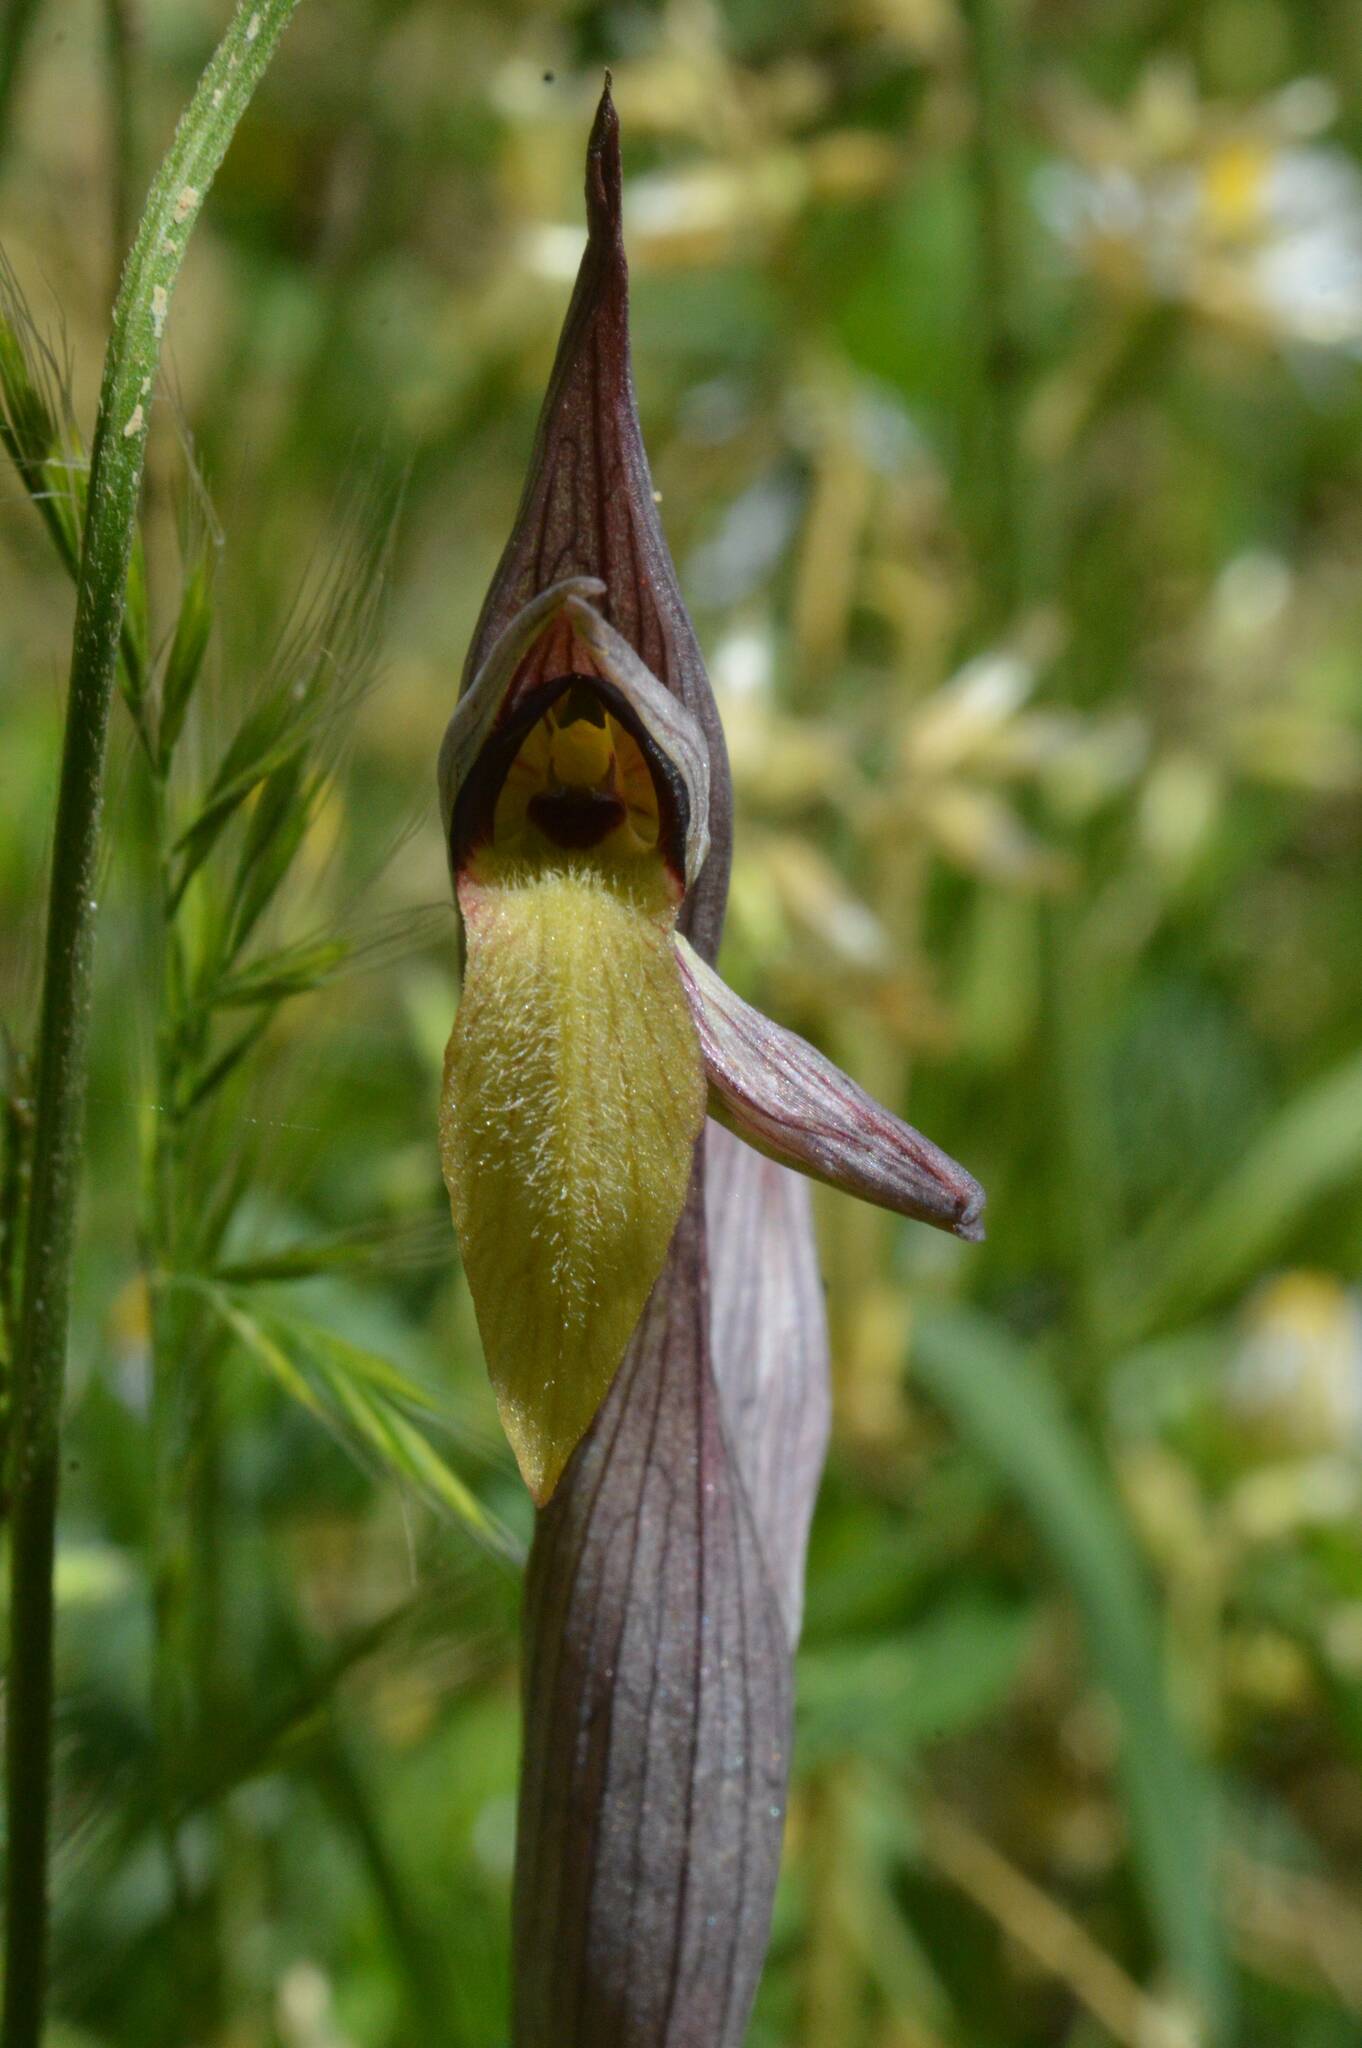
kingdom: Plantae
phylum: Tracheophyta
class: Liliopsida
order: Asparagales
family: Orchidaceae
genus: Serapias
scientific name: Serapias lingua
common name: Tongue-orchid
